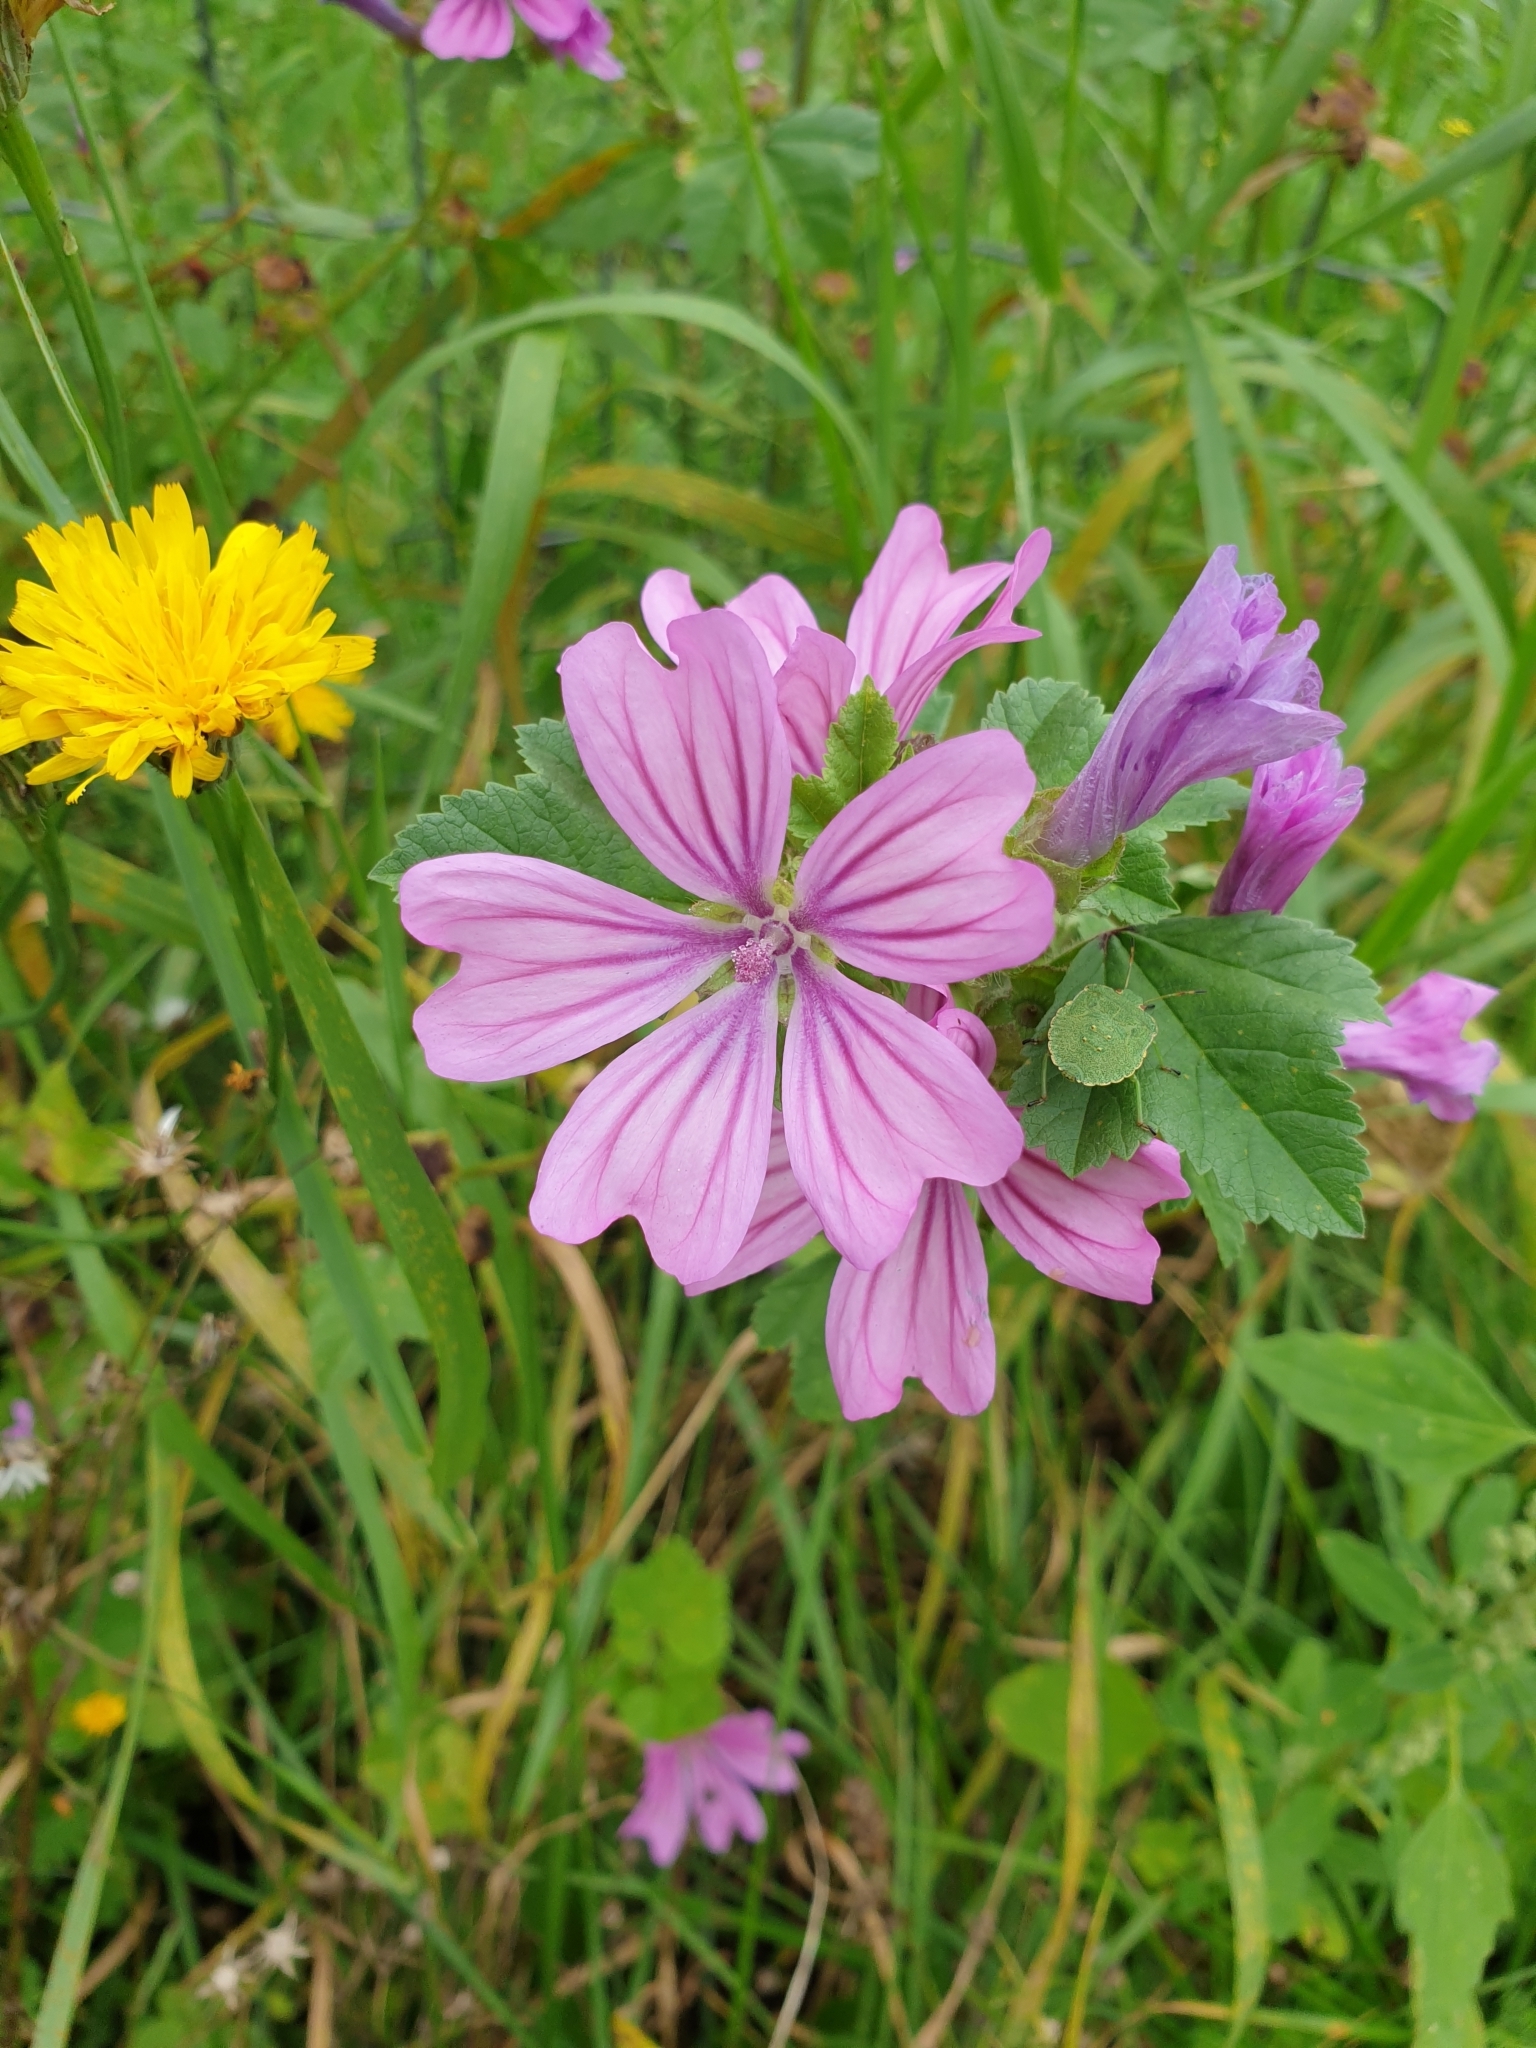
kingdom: Plantae
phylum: Tracheophyta
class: Magnoliopsida
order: Malvales
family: Malvaceae
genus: Malva
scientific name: Malva sylvestris
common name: Common mallow
